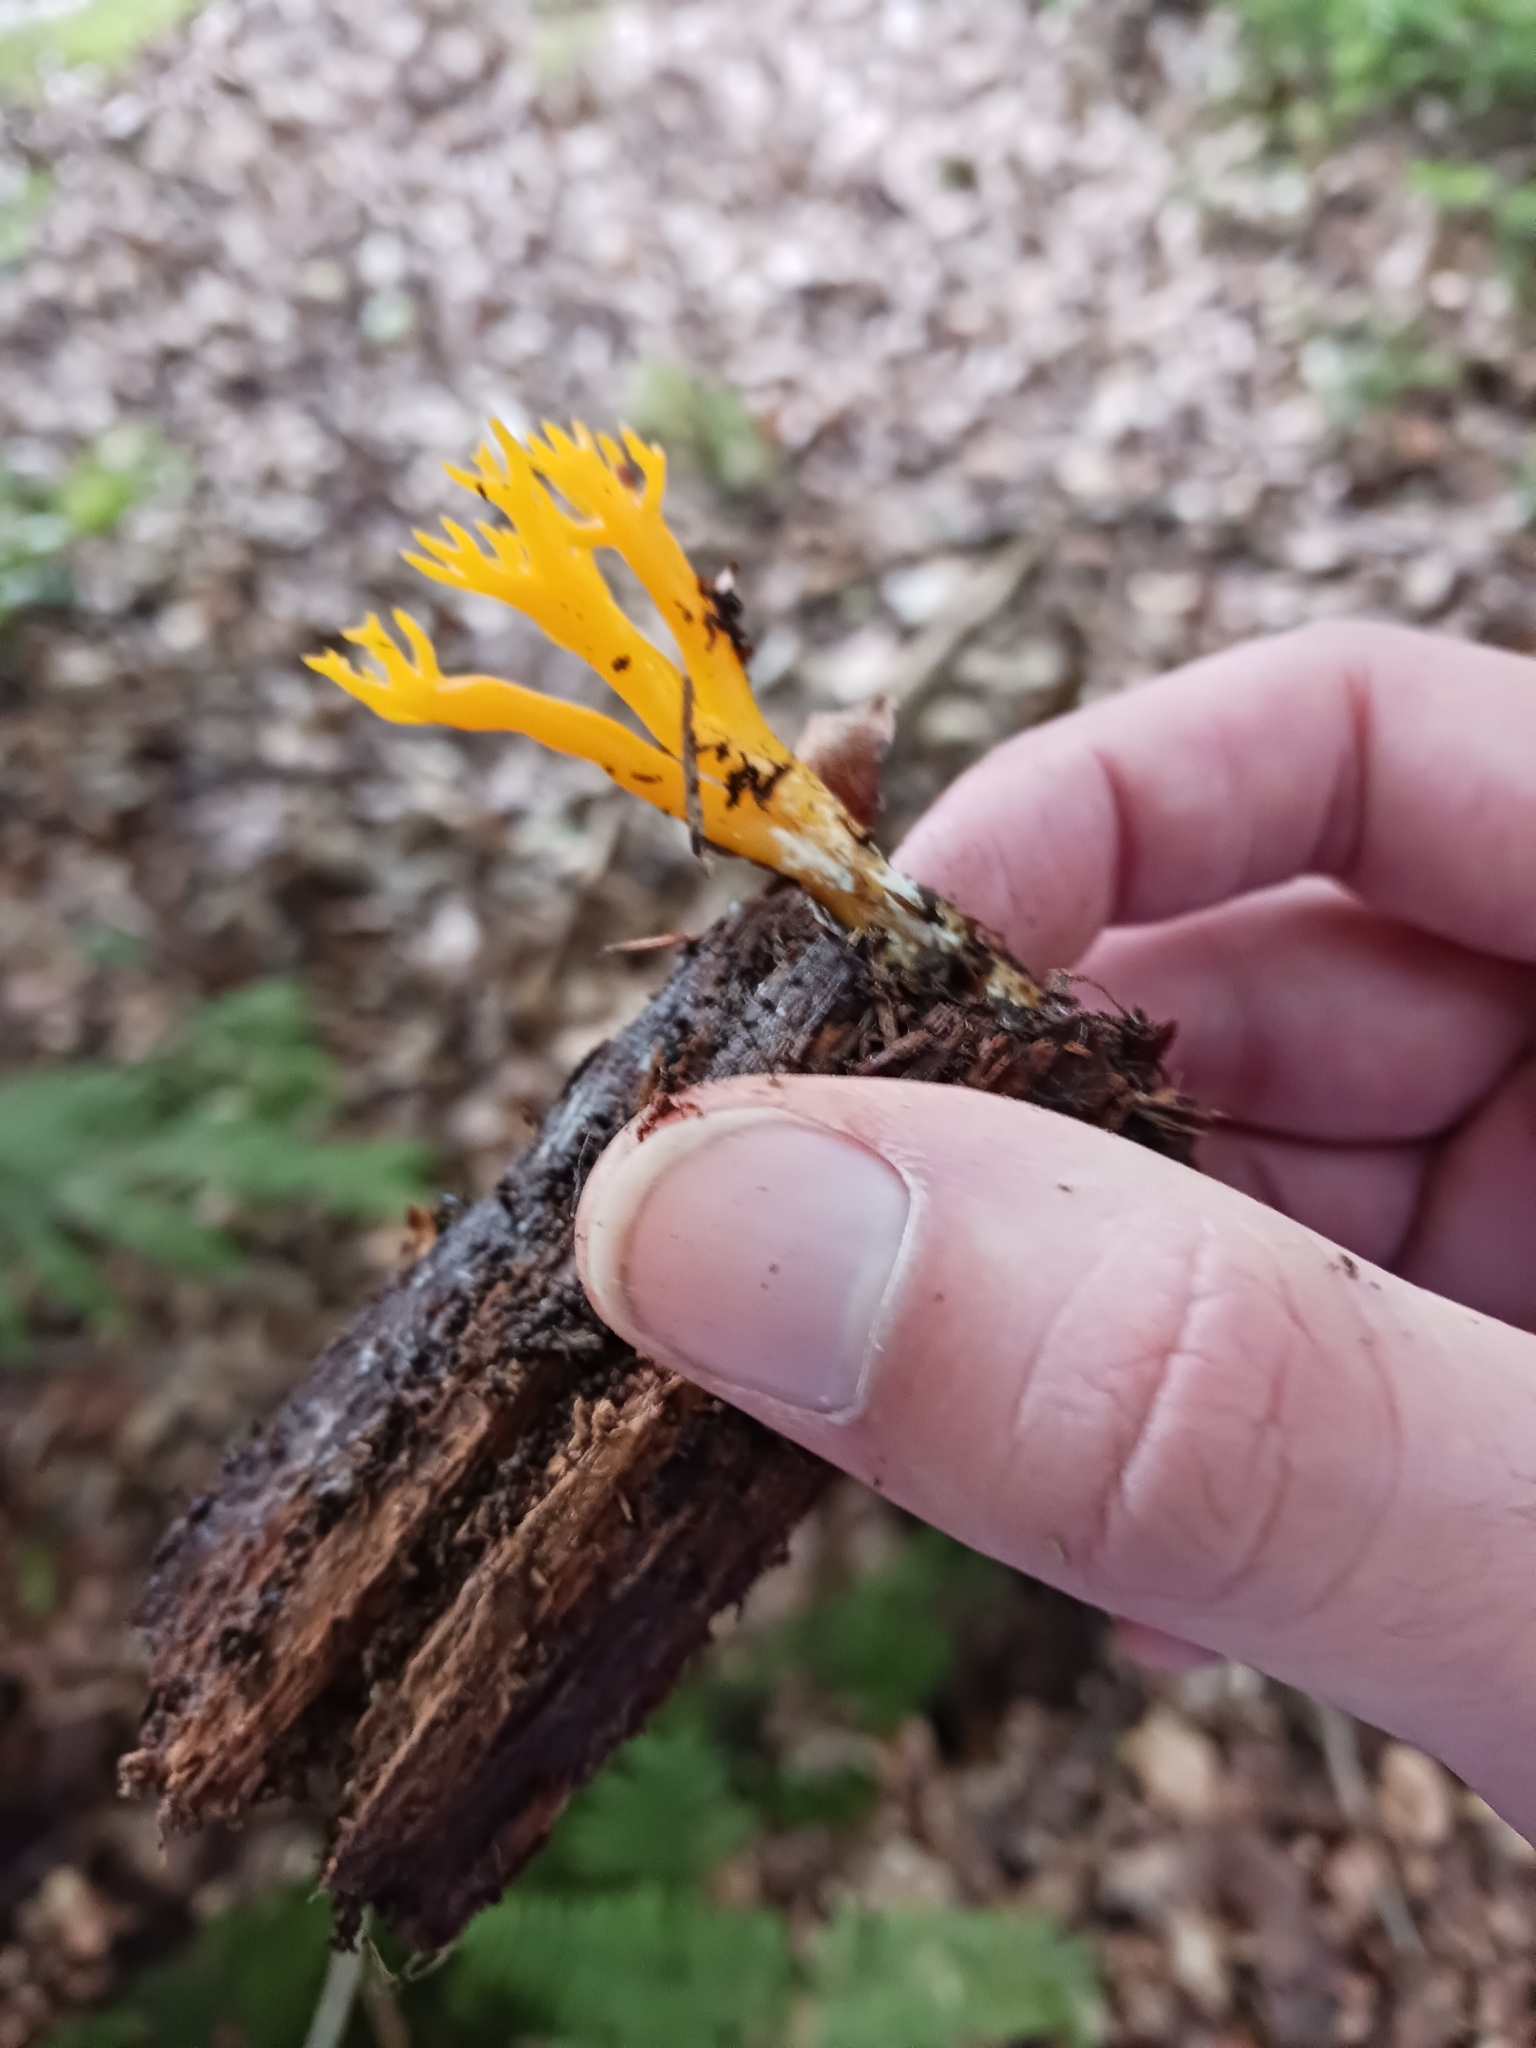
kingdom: Fungi
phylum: Basidiomycota
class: Dacrymycetes
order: Dacrymycetales
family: Dacrymycetaceae
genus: Calocera
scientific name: Calocera viscosa
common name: Yellow stagshorn
